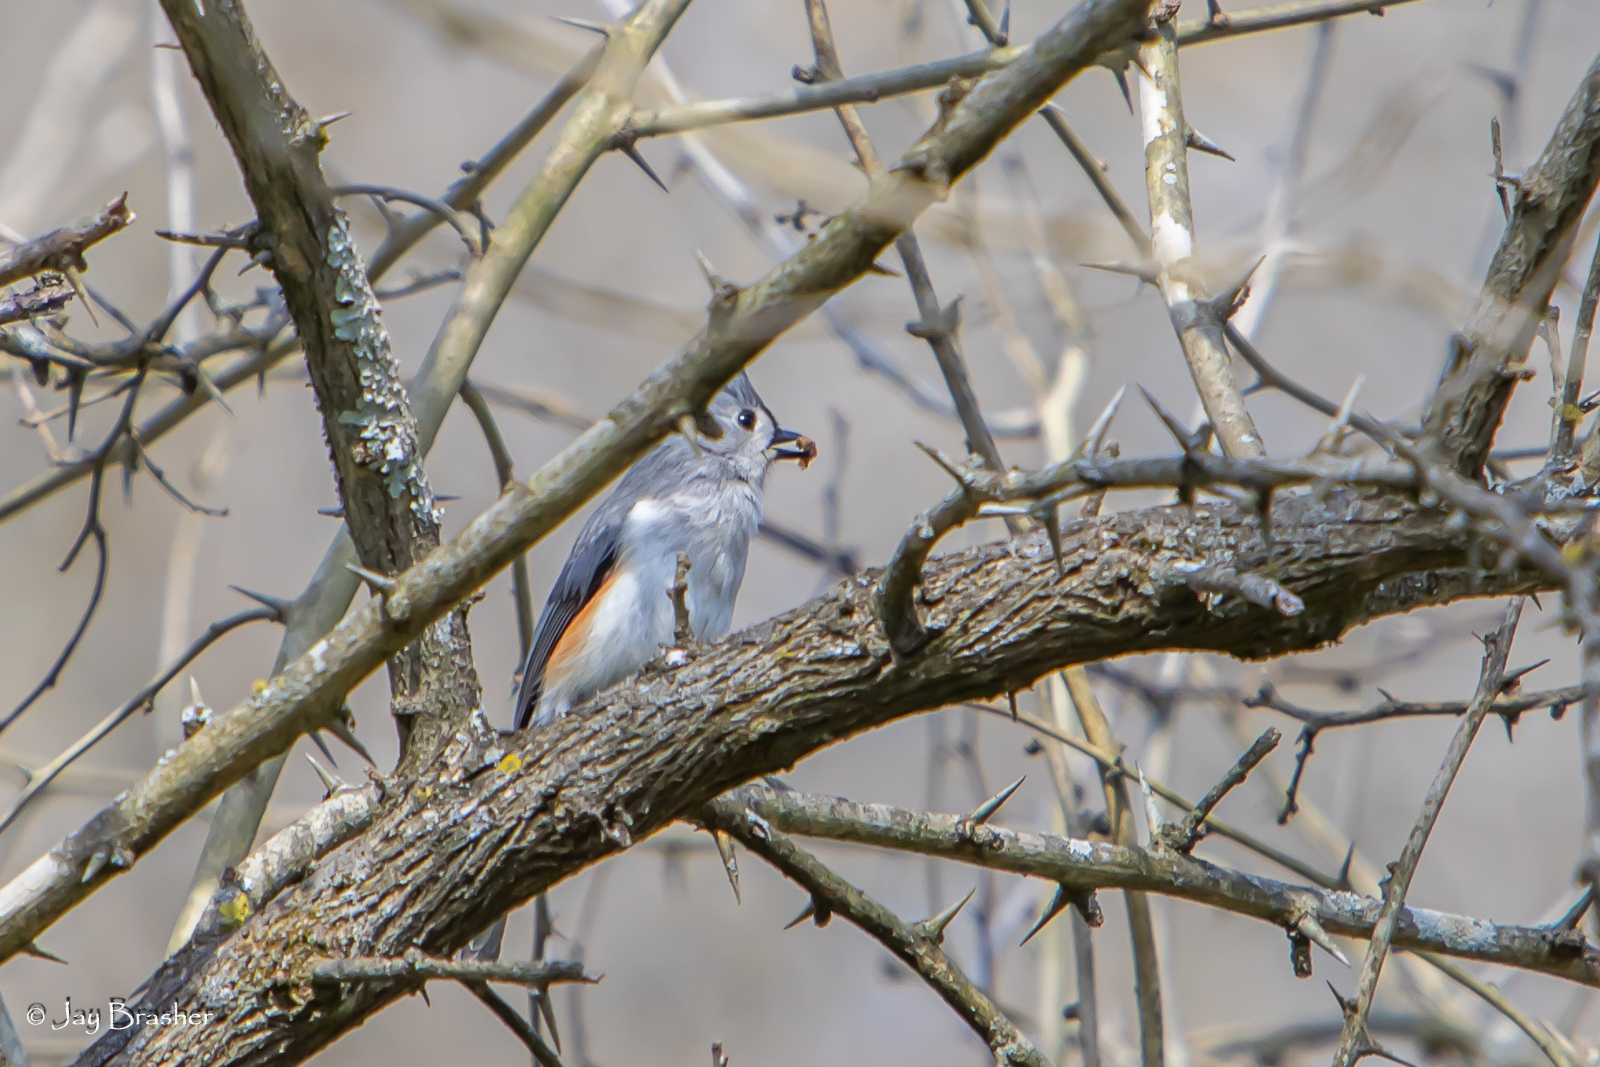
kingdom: Animalia
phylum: Chordata
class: Aves
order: Passeriformes
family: Paridae
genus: Baeolophus
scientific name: Baeolophus bicolor
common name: Tufted titmouse
